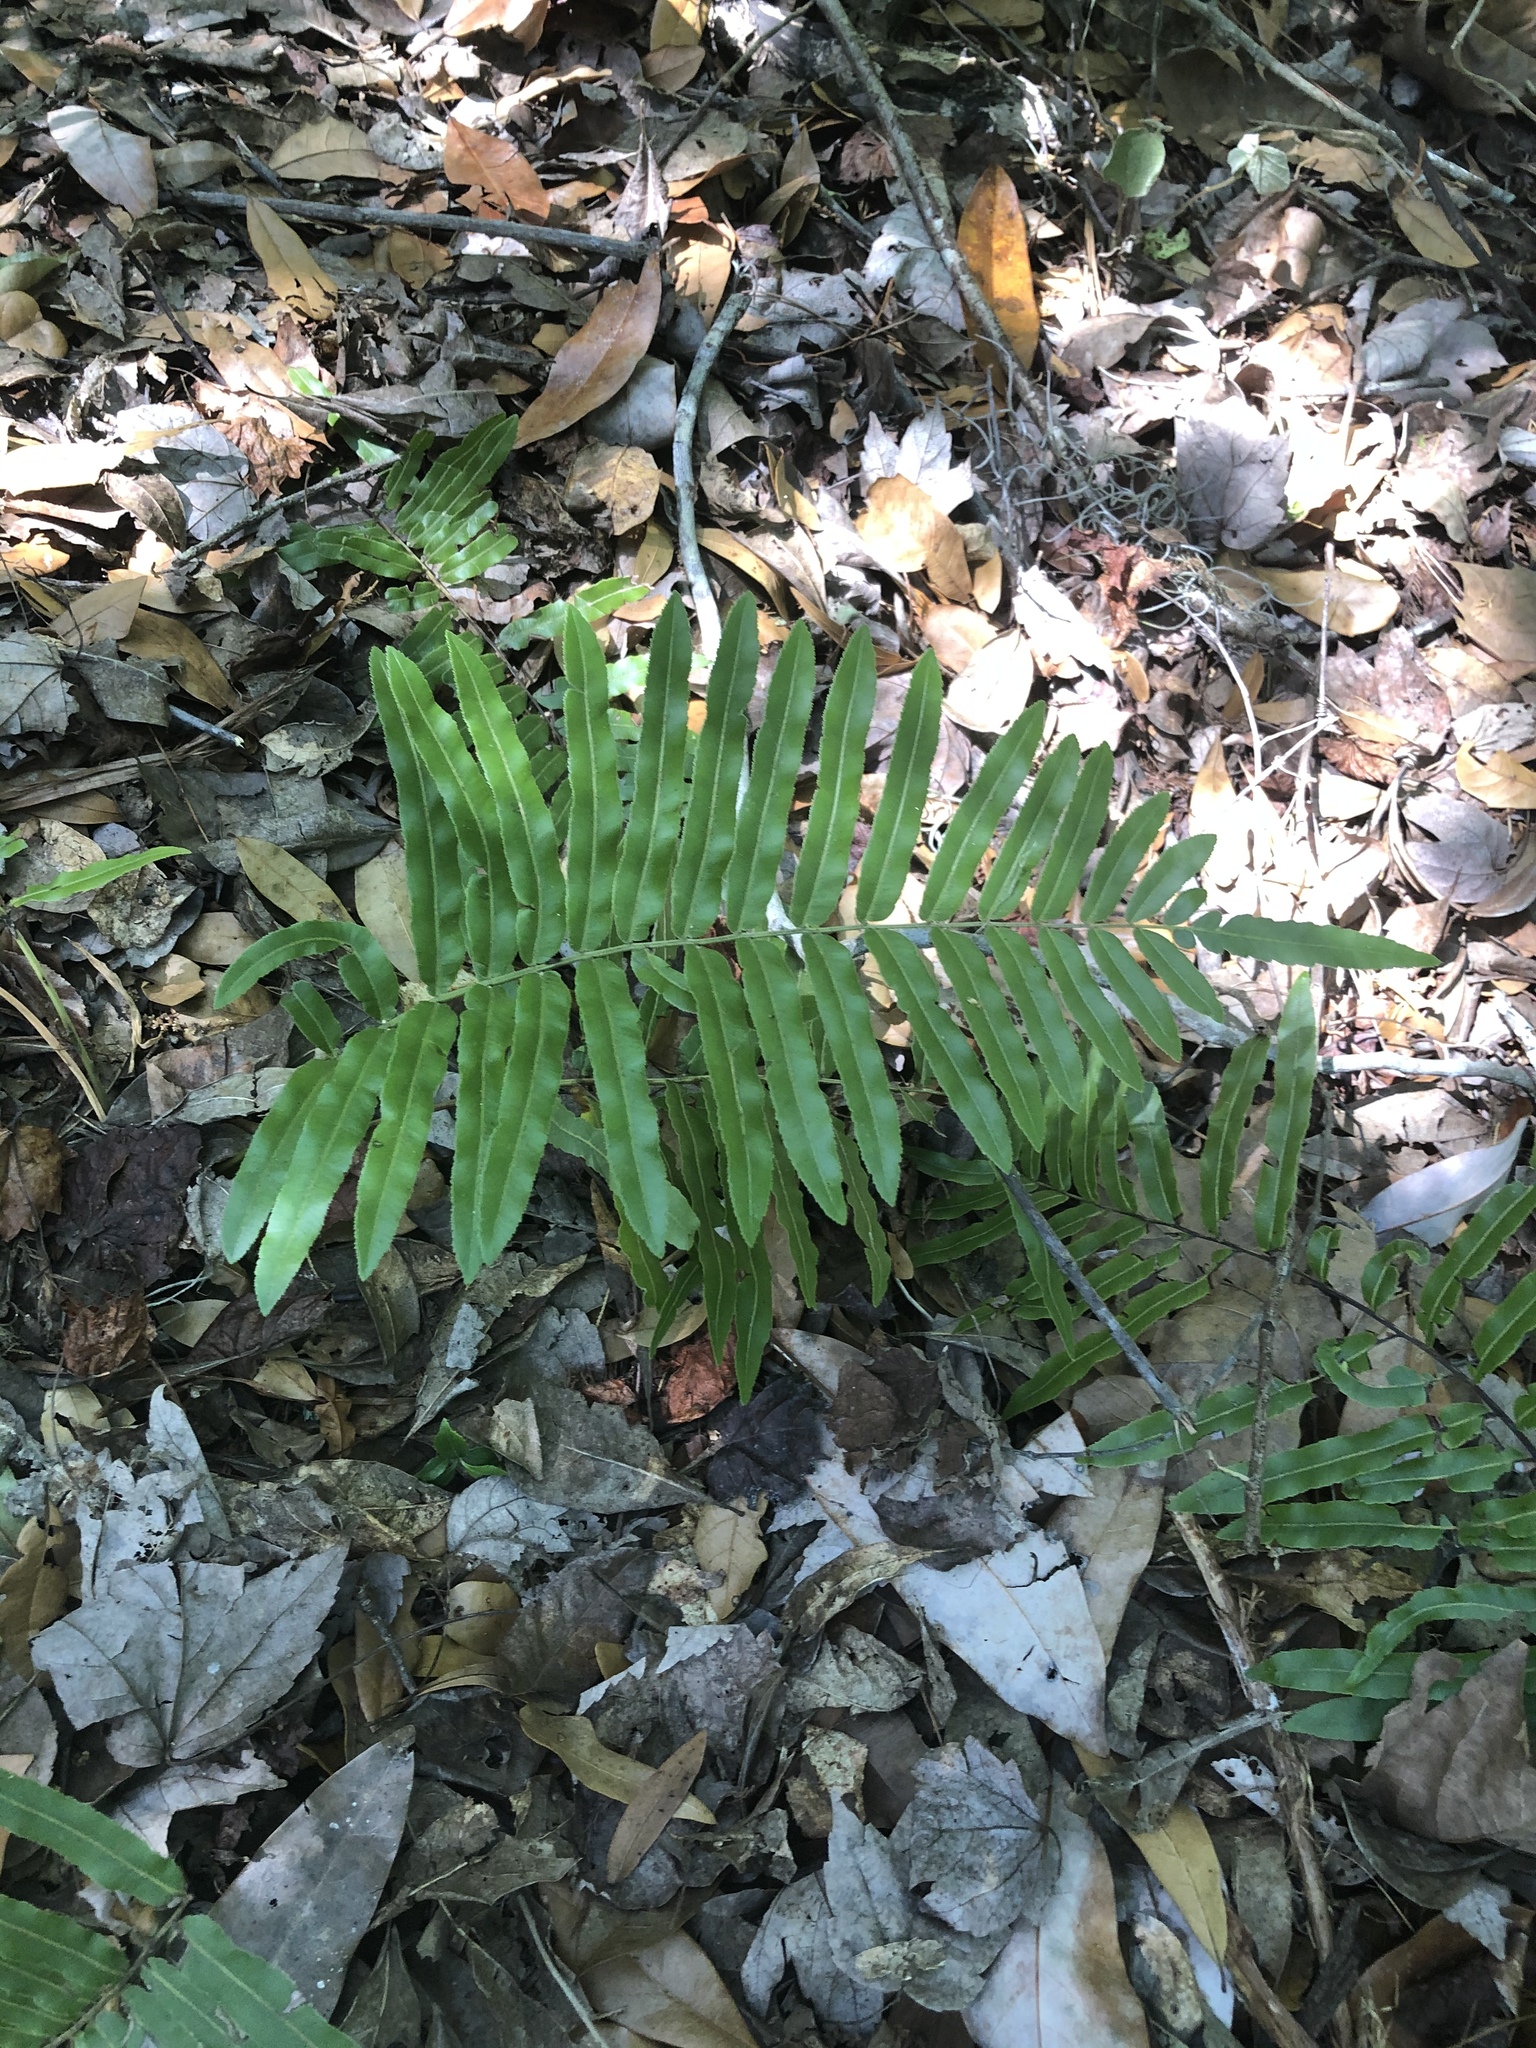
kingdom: Plantae
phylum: Tracheophyta
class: Polypodiopsida
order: Polypodiales
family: Blechnaceae
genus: Telmatoblechnum
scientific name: Telmatoblechnum serrulatum
